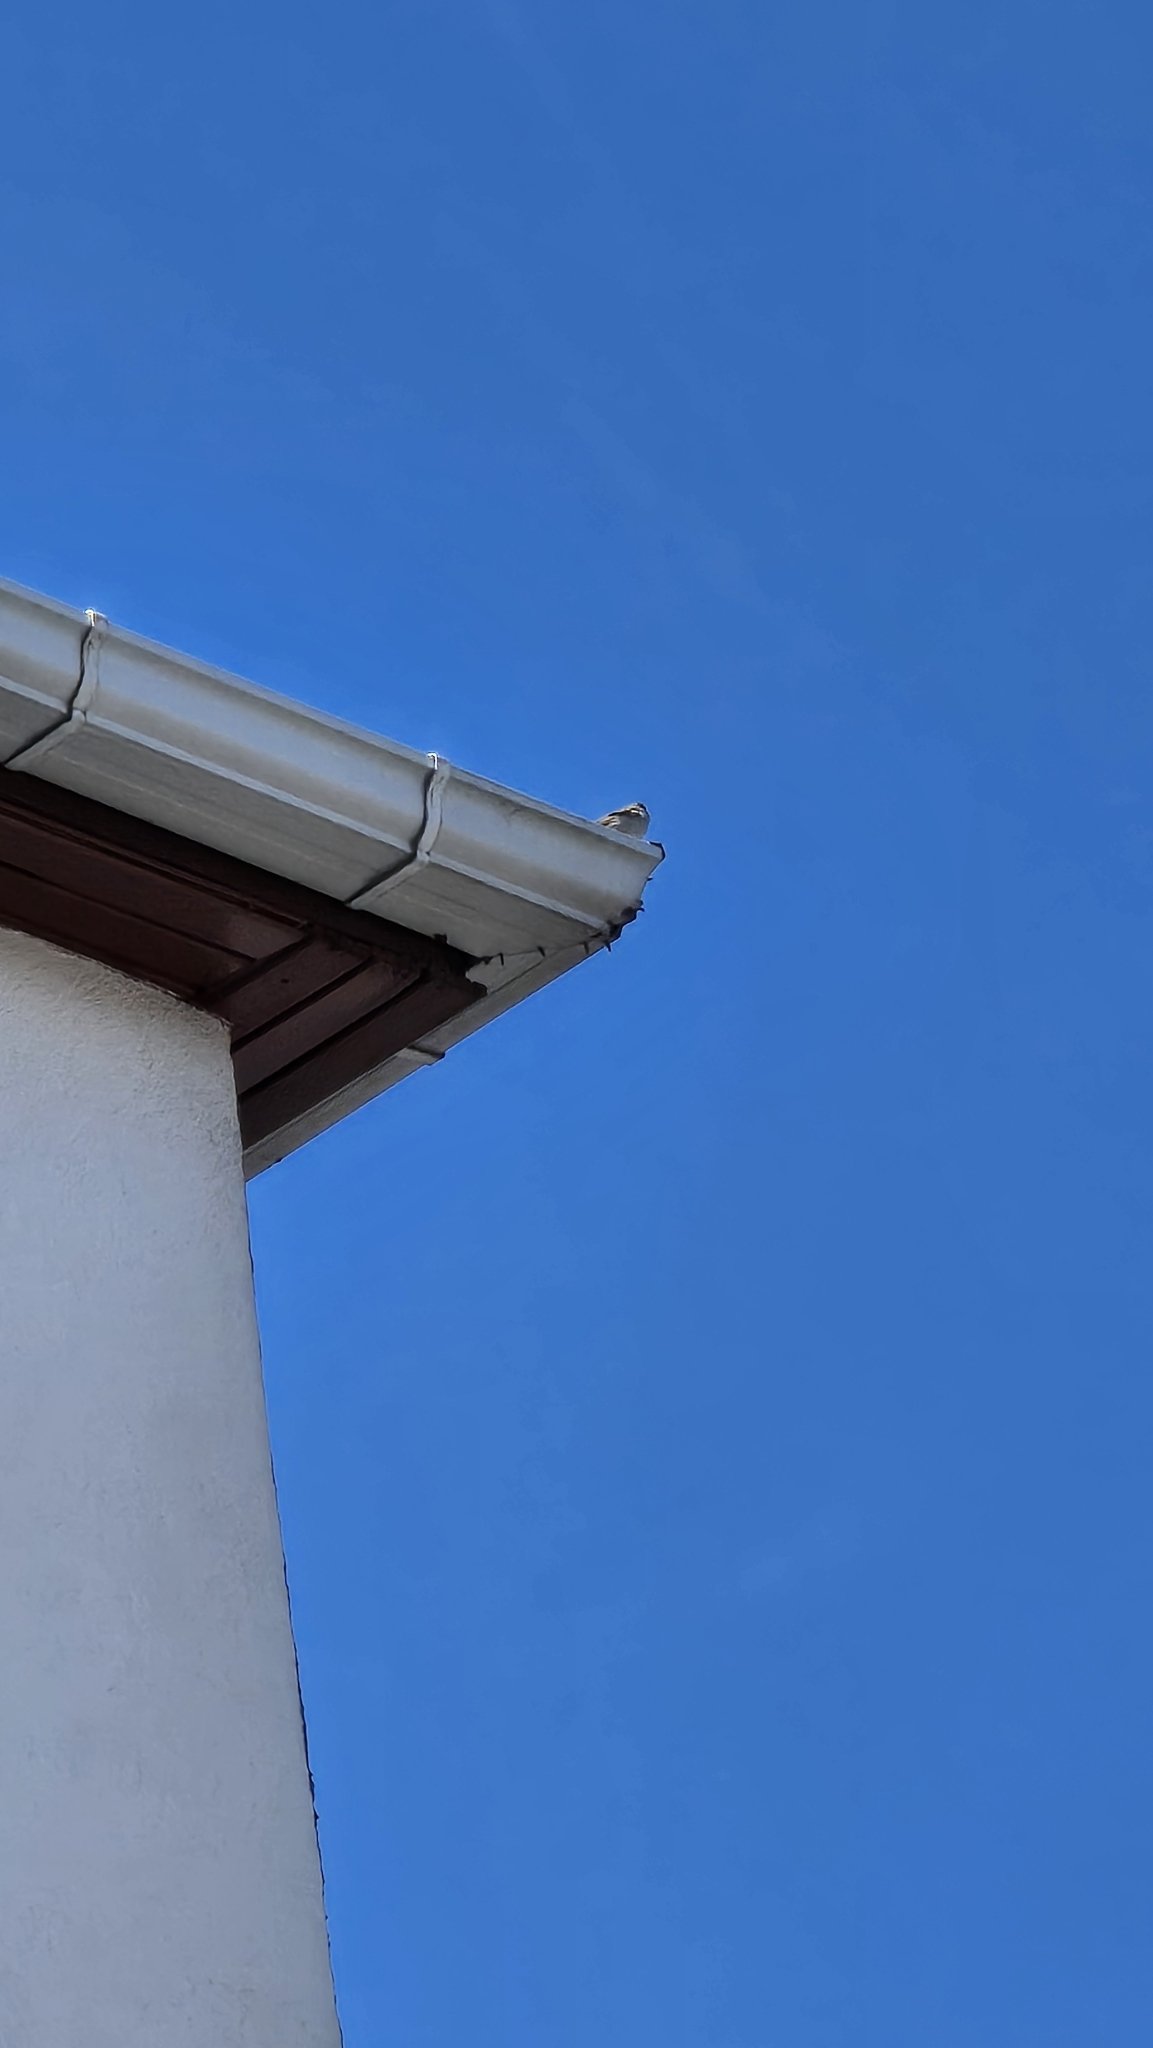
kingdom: Animalia
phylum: Chordata
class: Aves
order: Passeriformes
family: Passeridae
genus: Passer
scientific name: Passer domesticus
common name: House sparrow
